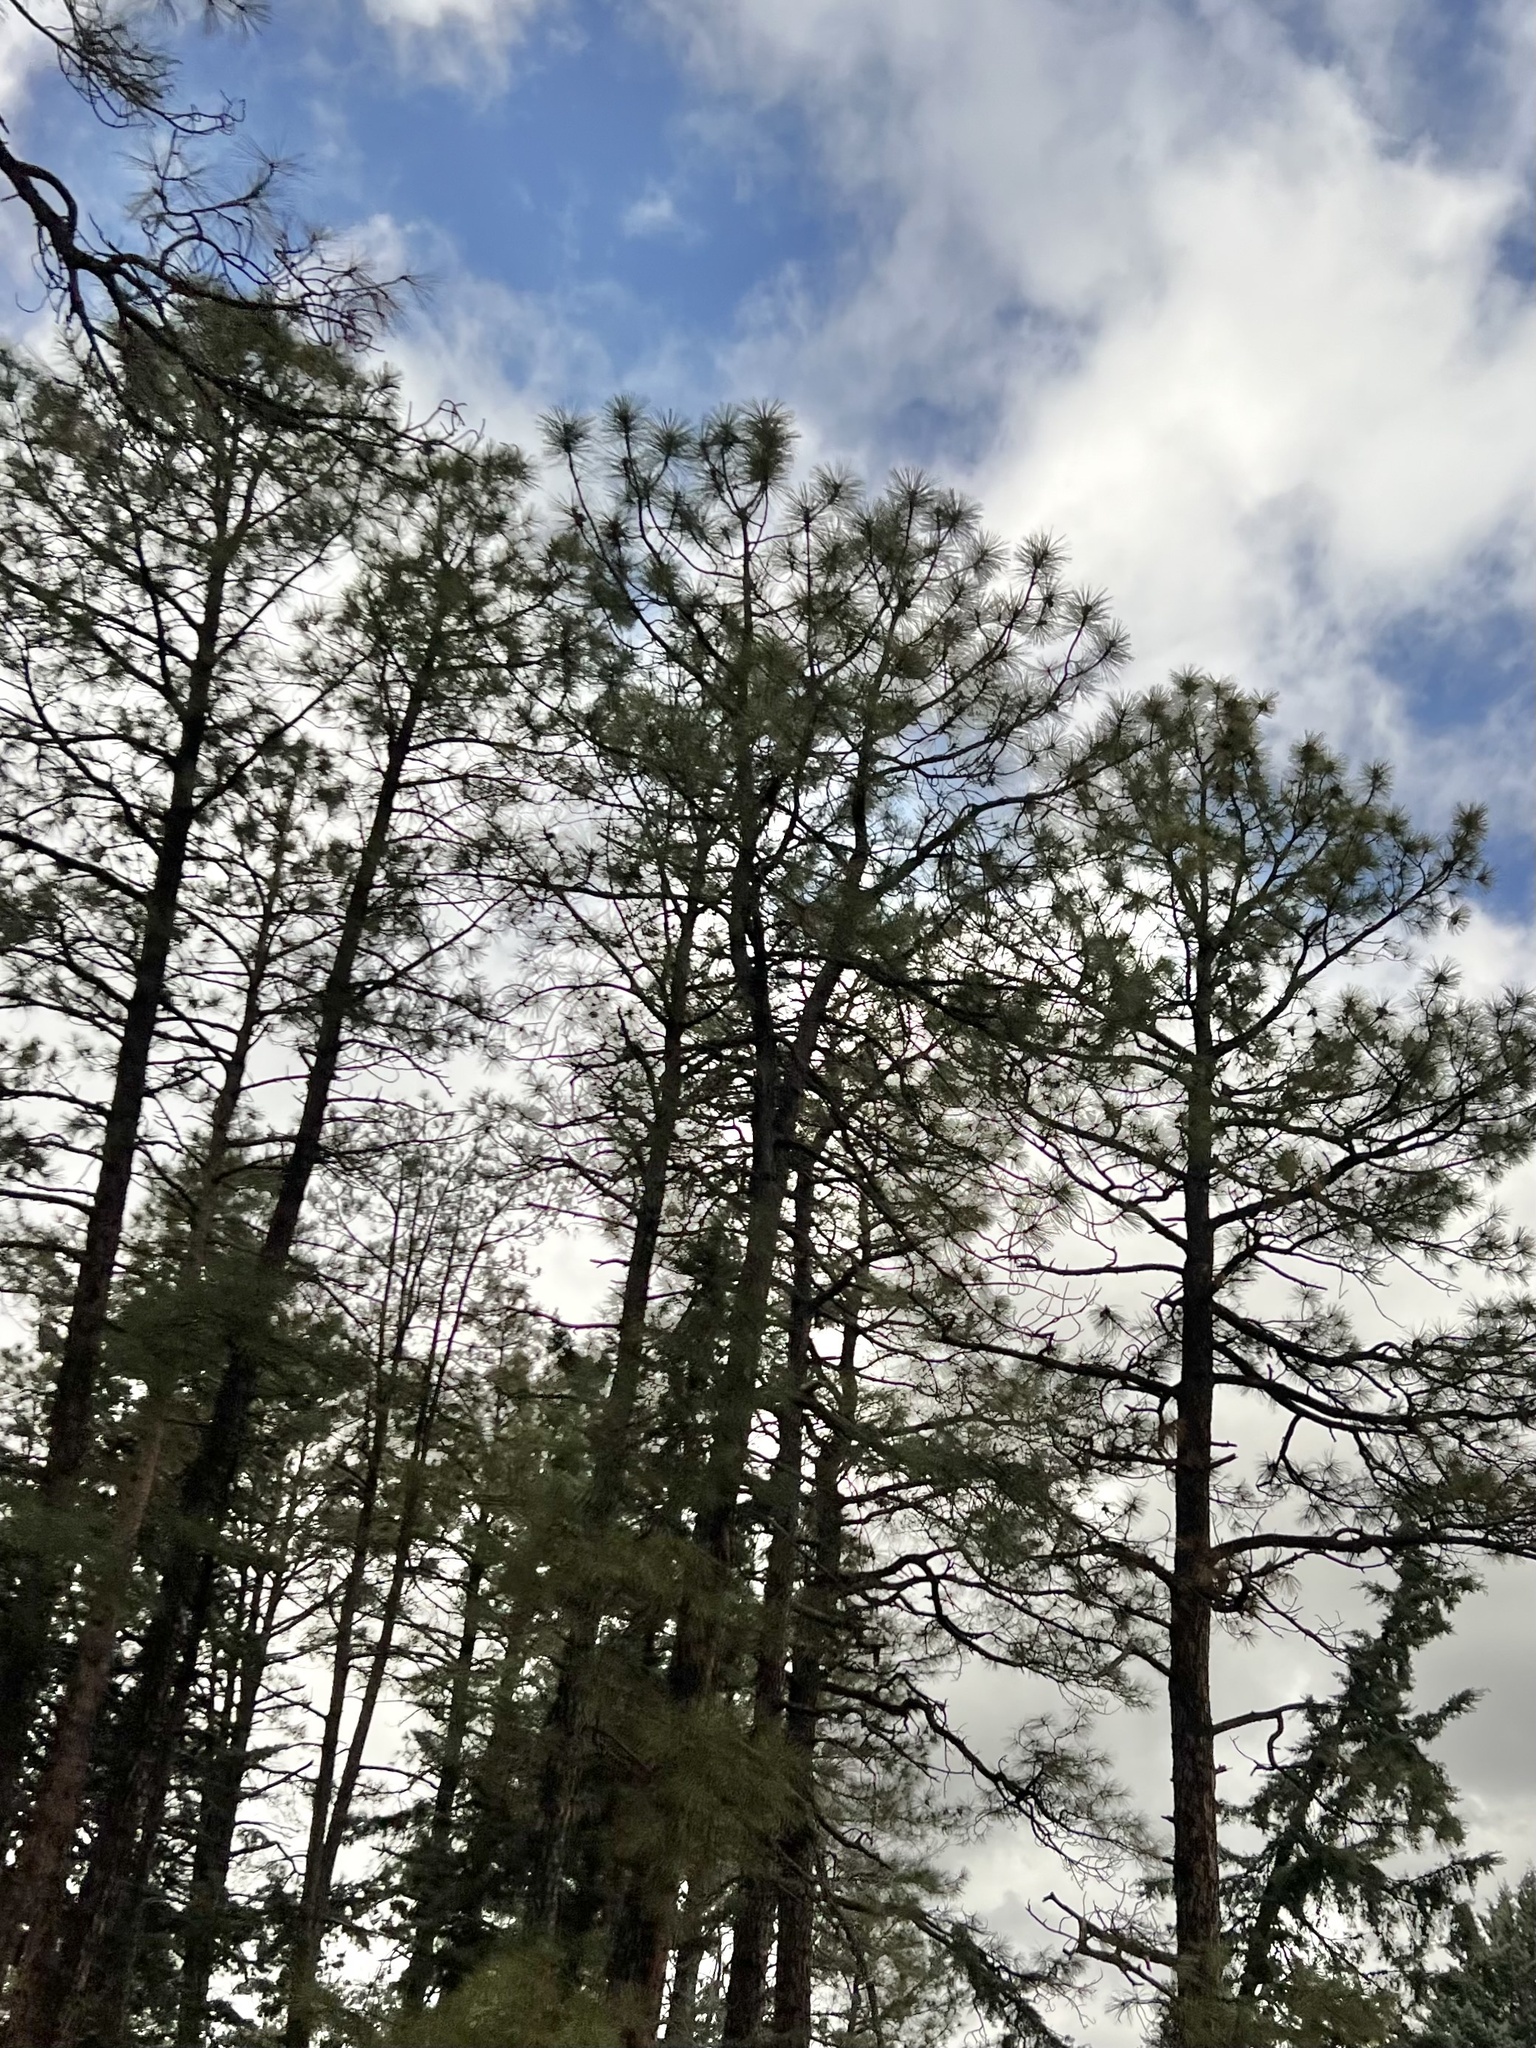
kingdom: Plantae
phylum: Tracheophyta
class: Pinopsida
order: Pinales
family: Pinaceae
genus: Pinus
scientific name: Pinus ponderosa
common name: Western yellow-pine
